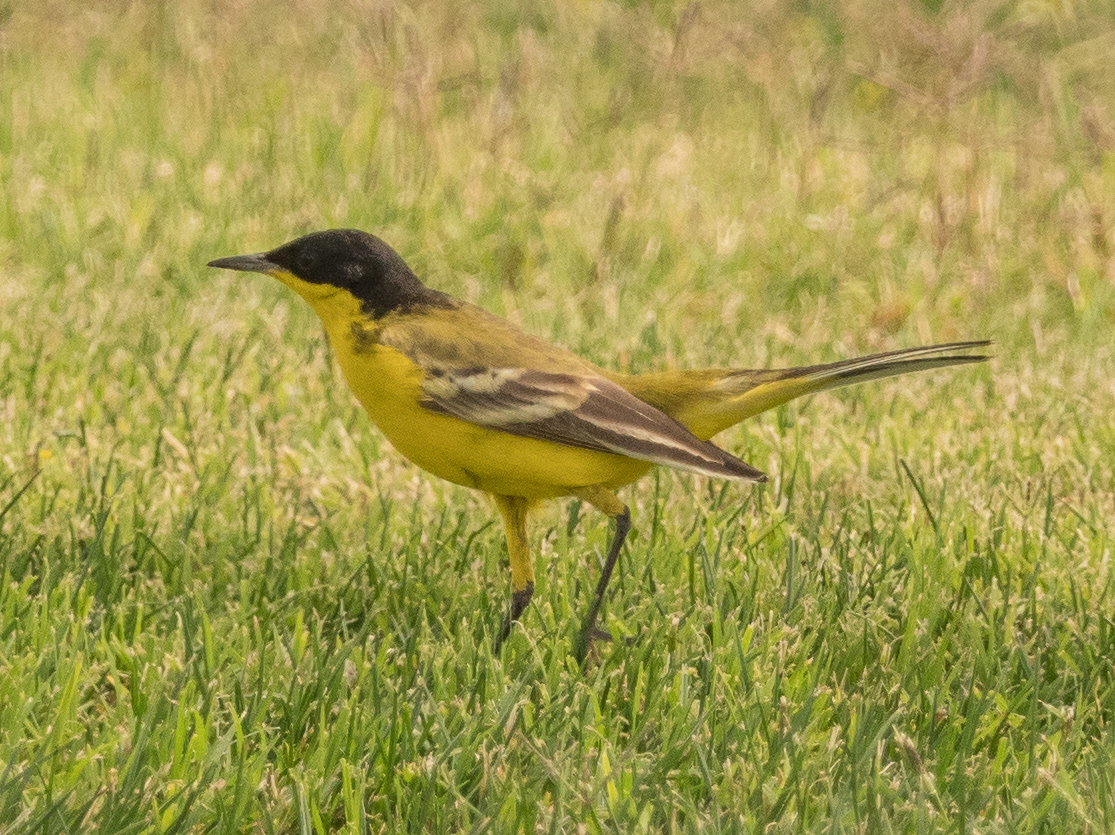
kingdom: Animalia
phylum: Chordata
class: Aves
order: Passeriformes
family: Motacillidae
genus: Motacilla
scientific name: Motacilla flava
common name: Western yellow wagtail
